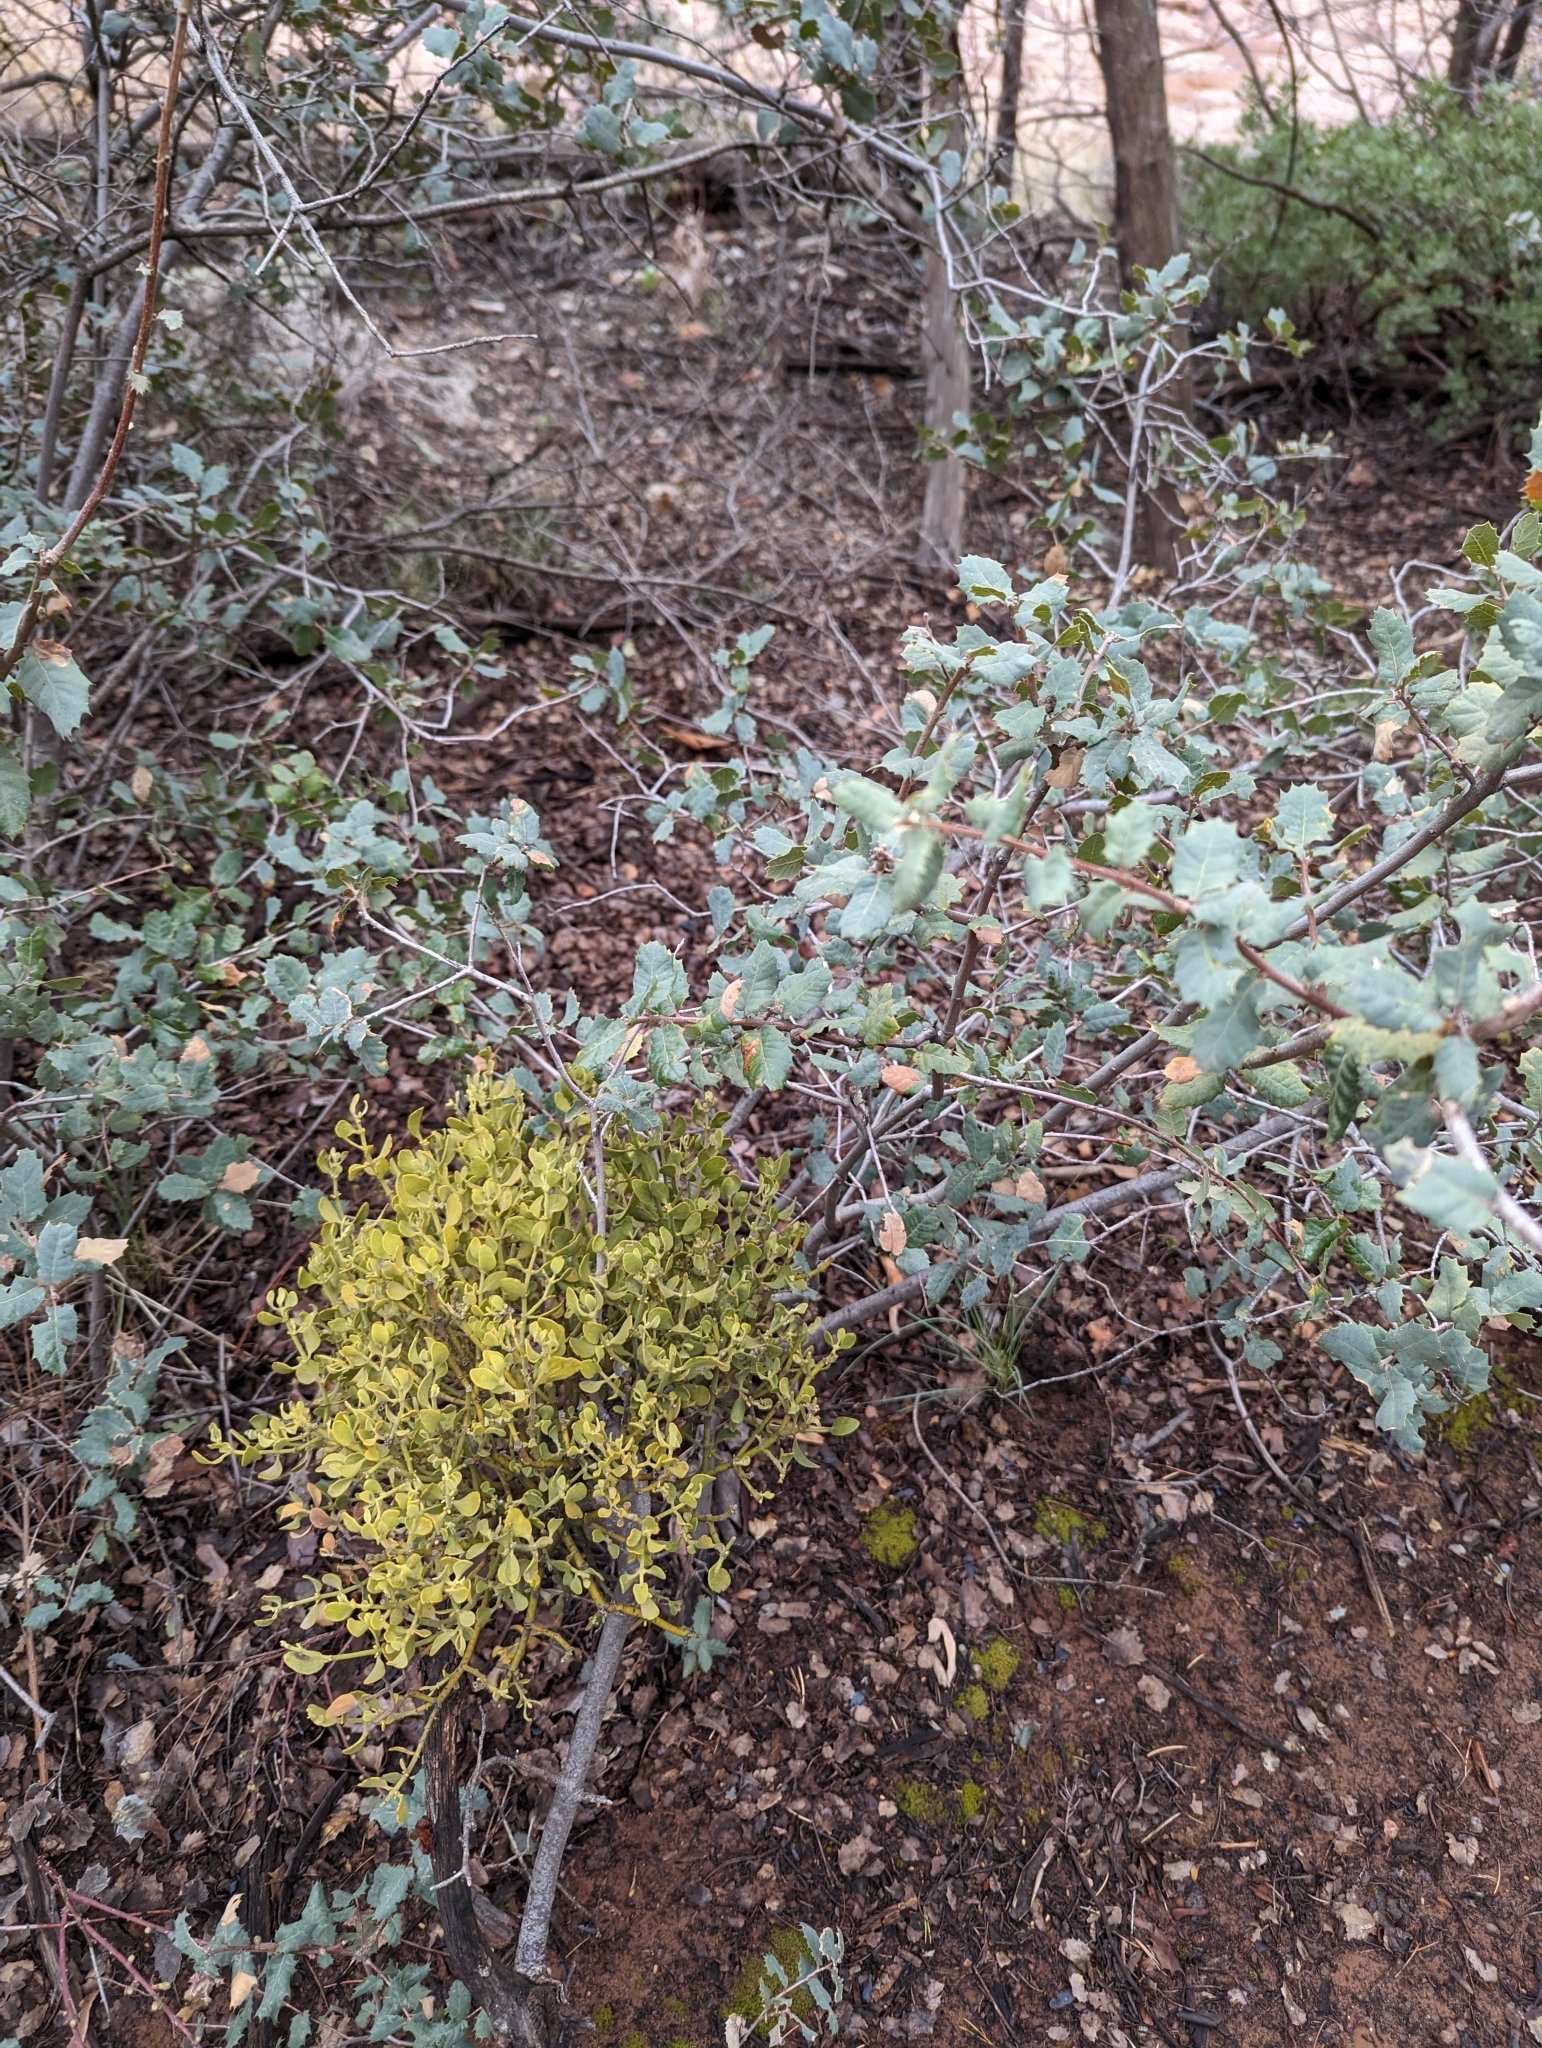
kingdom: Plantae
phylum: Tracheophyta
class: Magnoliopsida
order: Santalales
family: Viscaceae
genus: Phoradendron
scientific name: Phoradendron coryae
